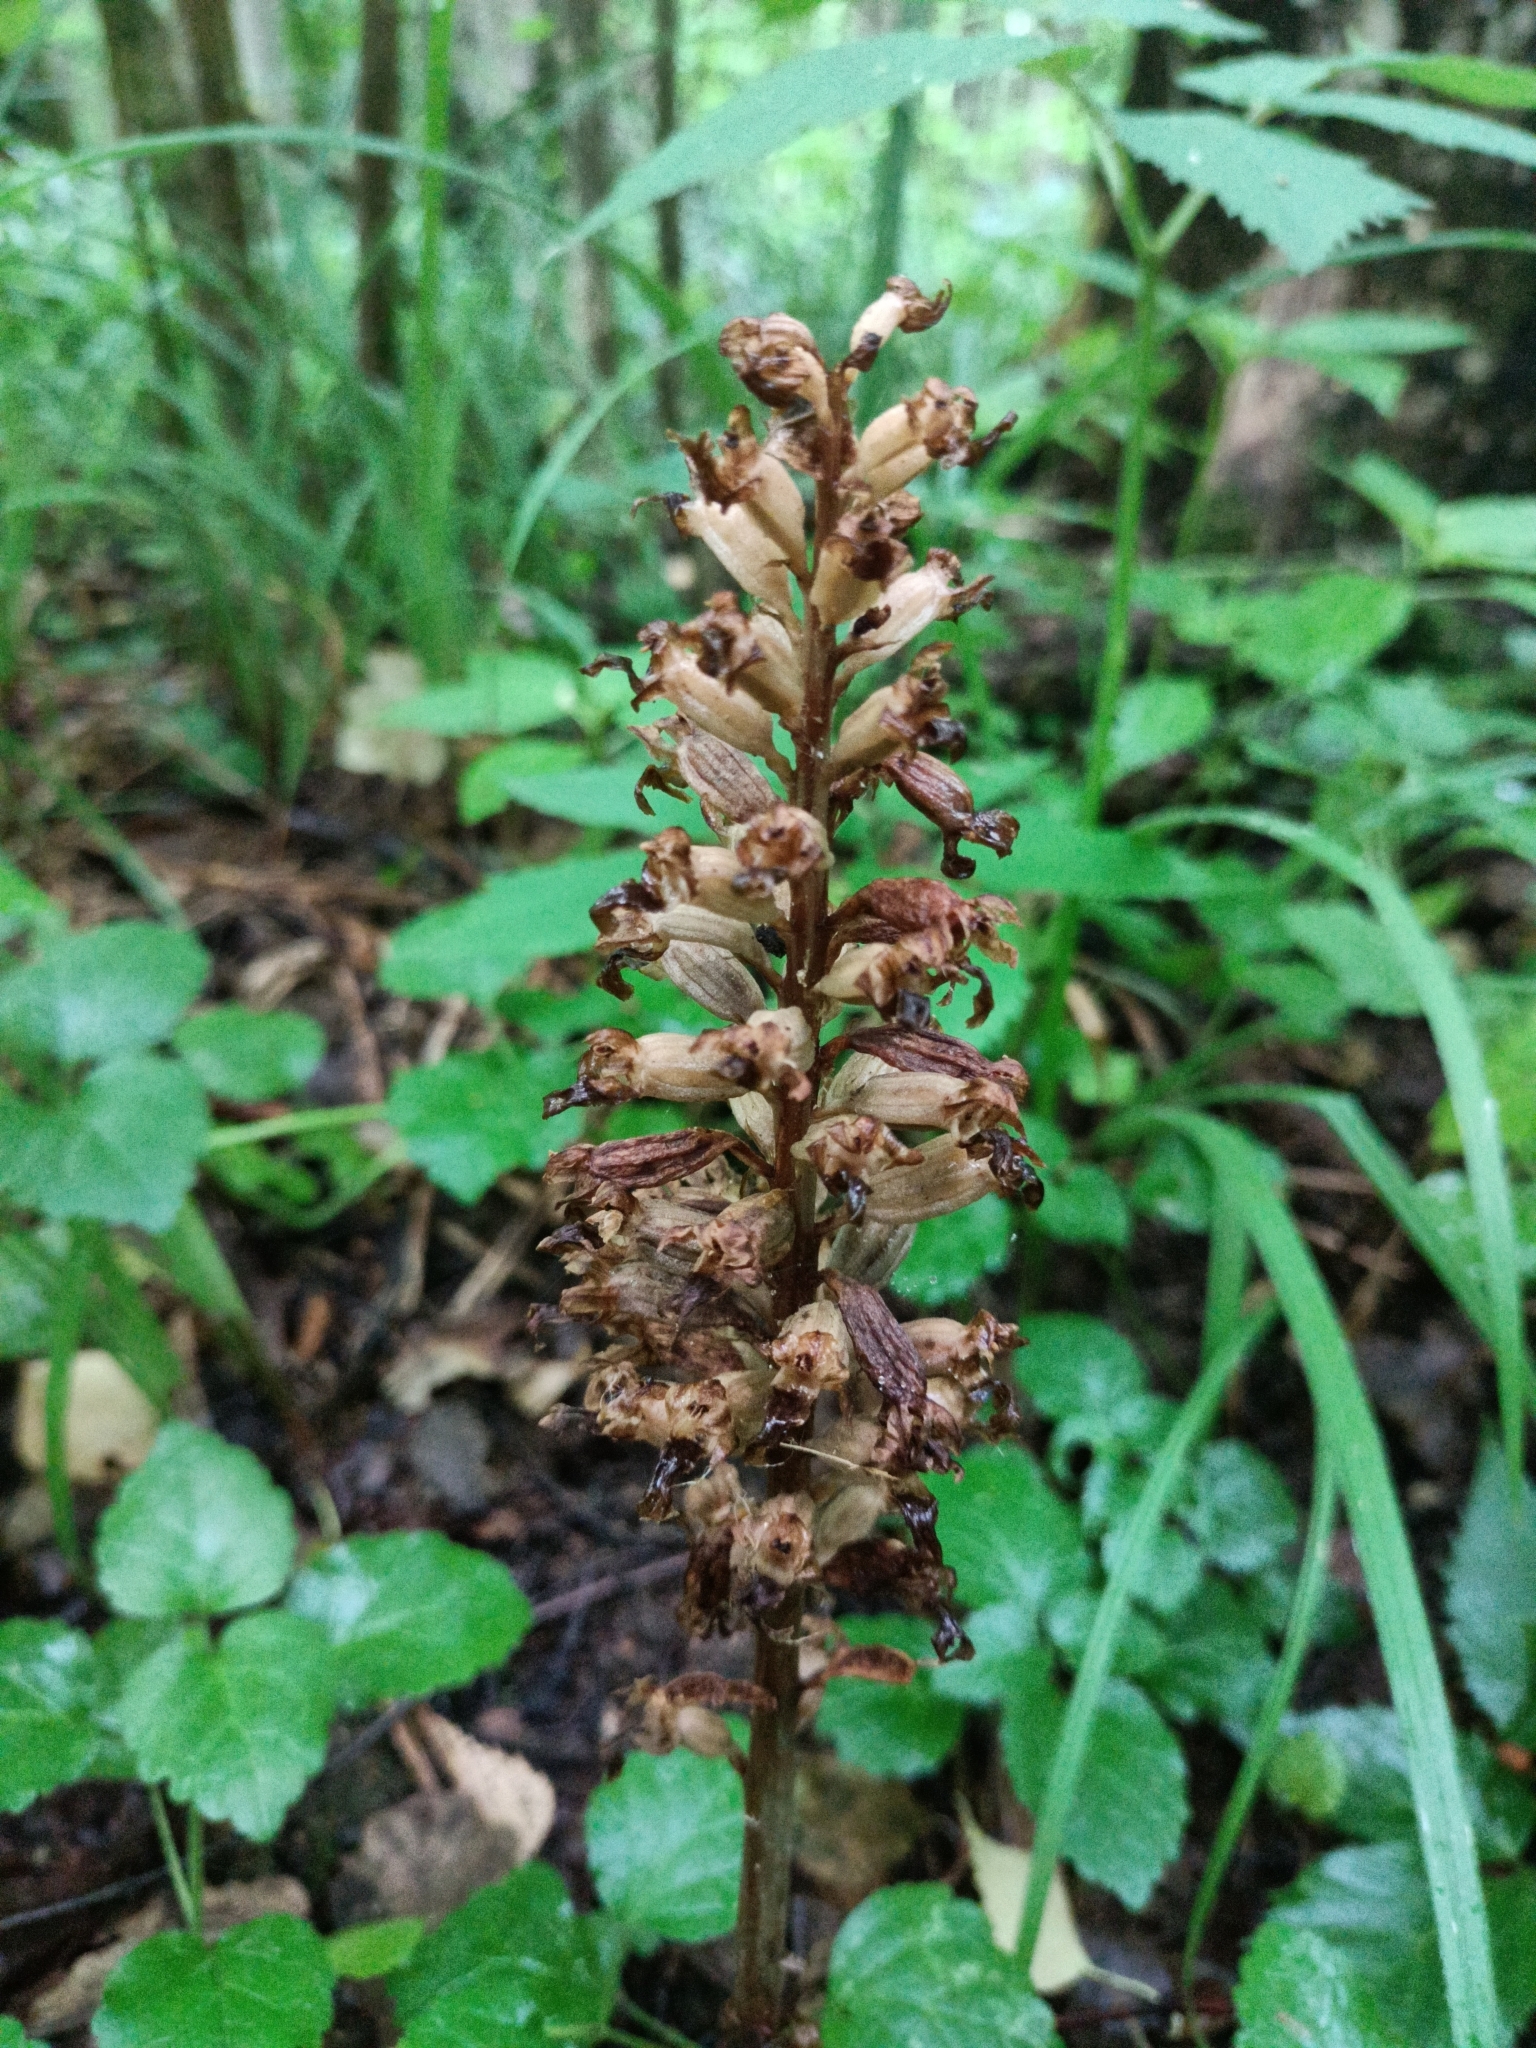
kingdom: Plantae
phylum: Tracheophyta
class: Liliopsida
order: Asparagales
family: Orchidaceae
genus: Neottia
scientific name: Neottia nidus-avis
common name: Bird's-nest orchid
